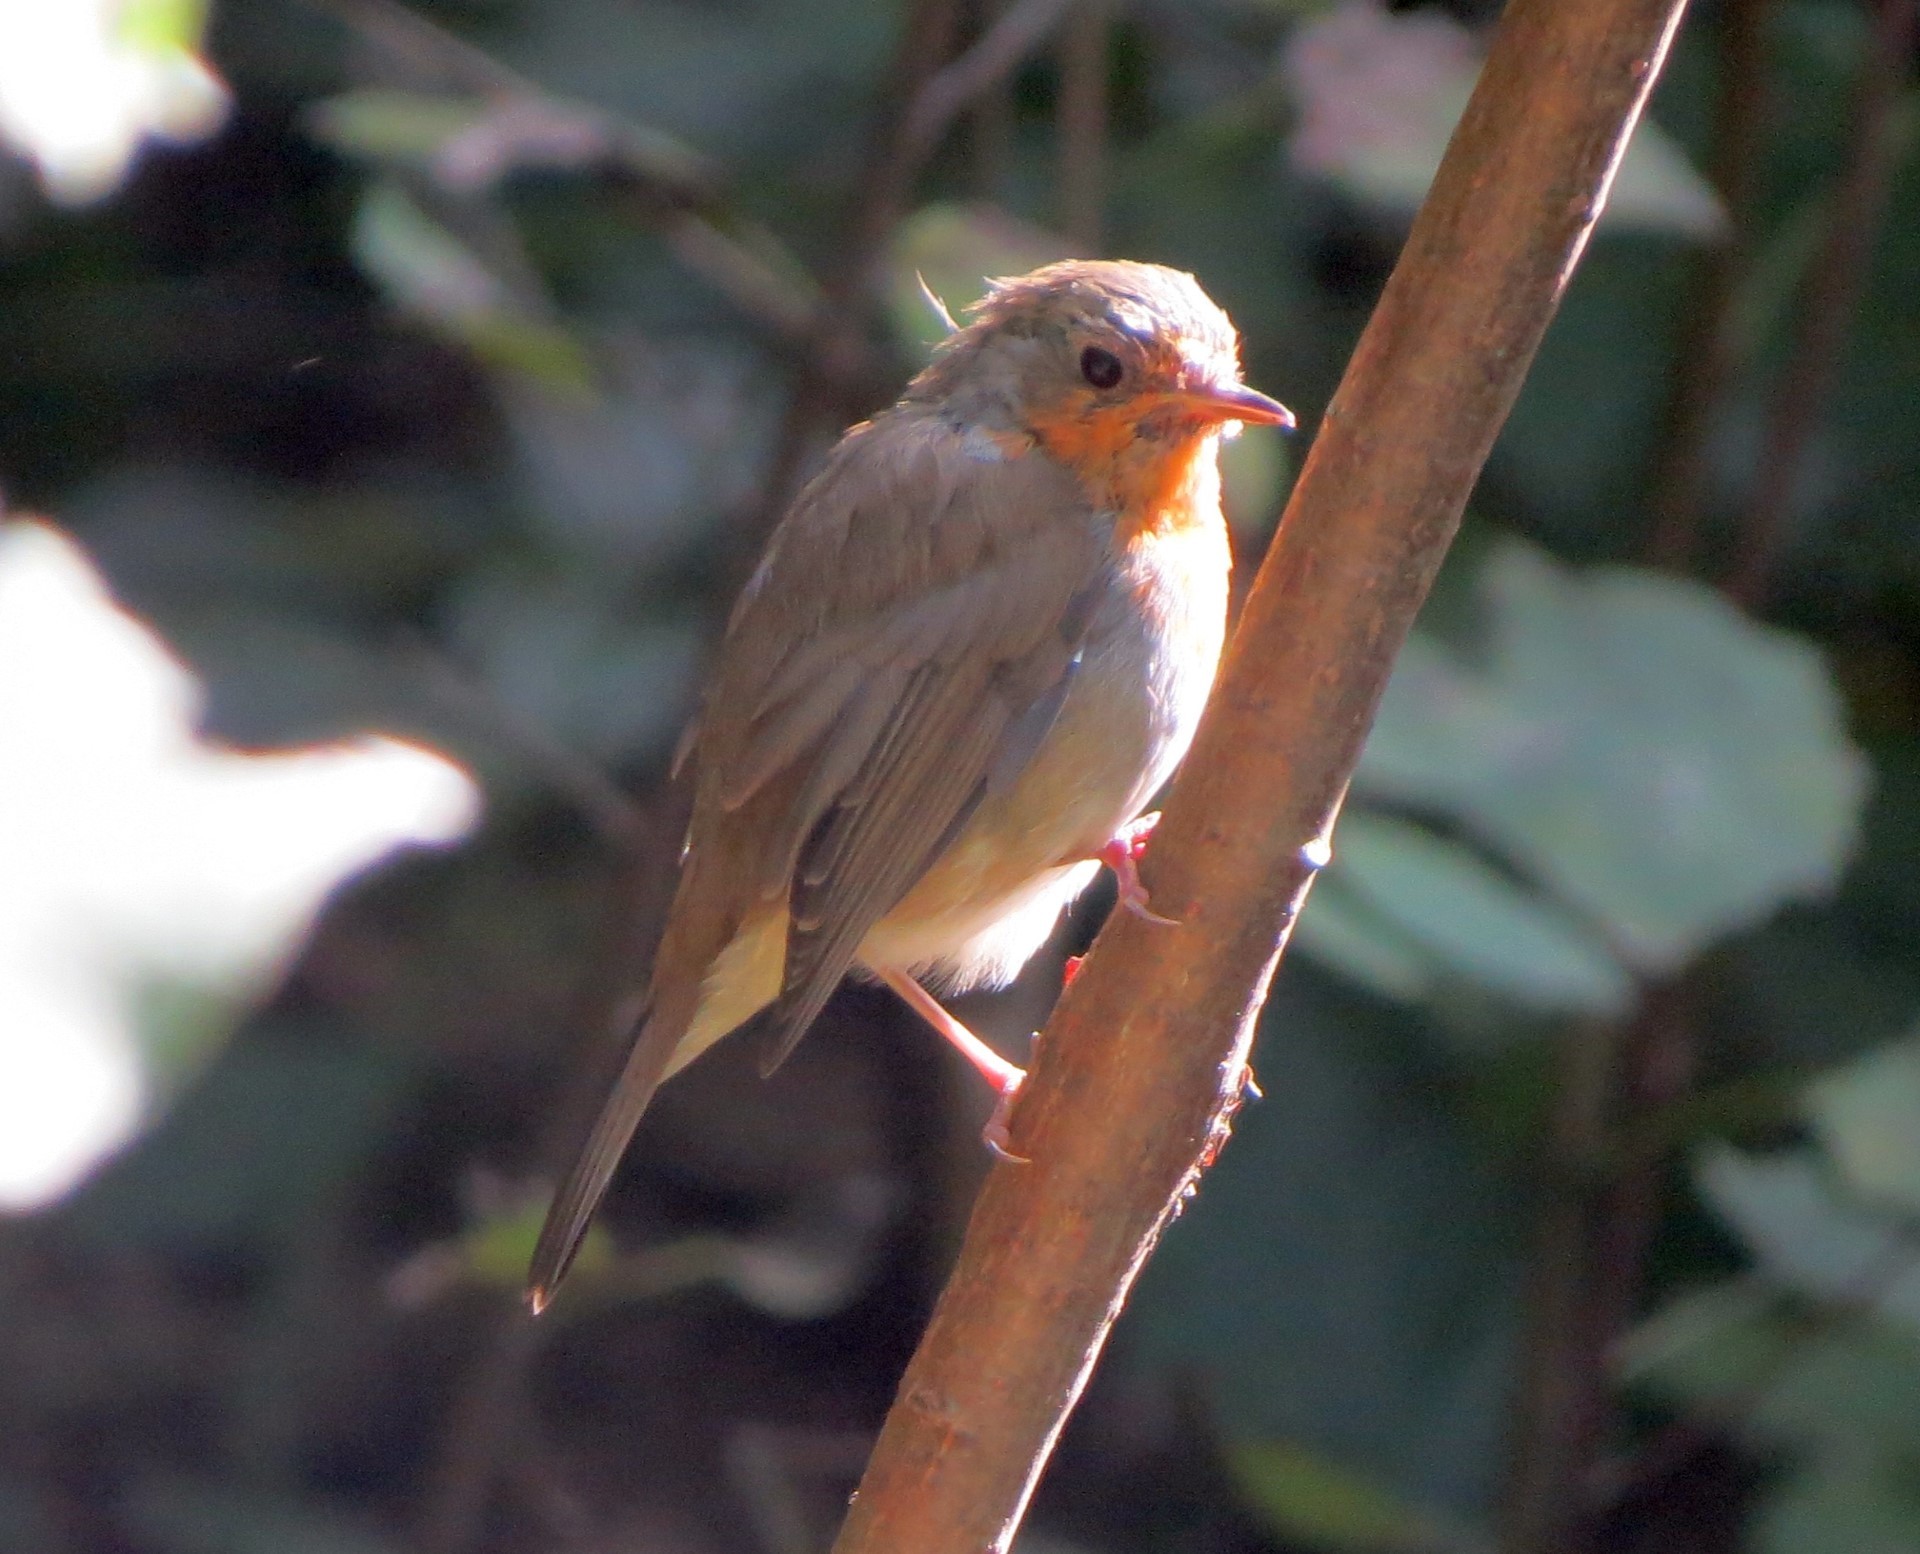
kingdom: Animalia
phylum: Chordata
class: Aves
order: Passeriformes
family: Muscicapidae
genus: Erithacus
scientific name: Erithacus rubecula
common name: European robin
